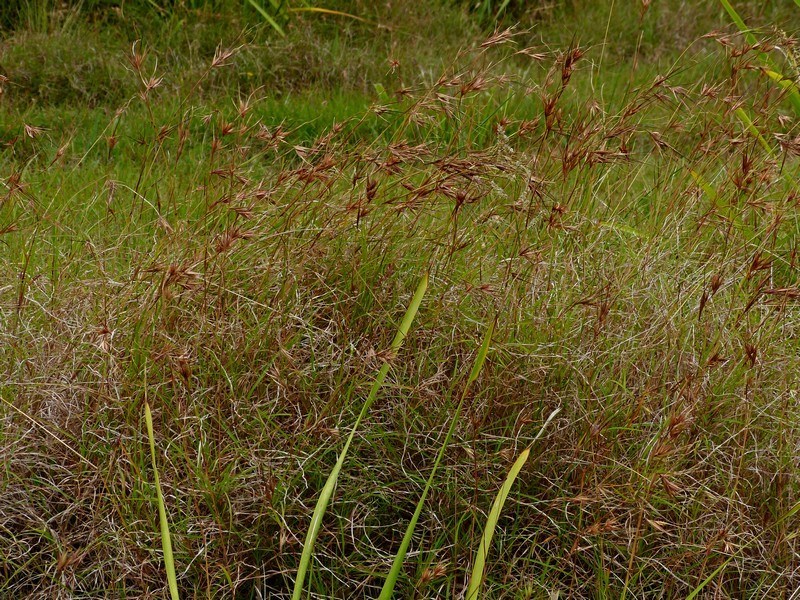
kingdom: Plantae
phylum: Tracheophyta
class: Liliopsida
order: Poales
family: Poaceae
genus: Themeda
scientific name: Themeda triandra
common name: Kangaroo grass
